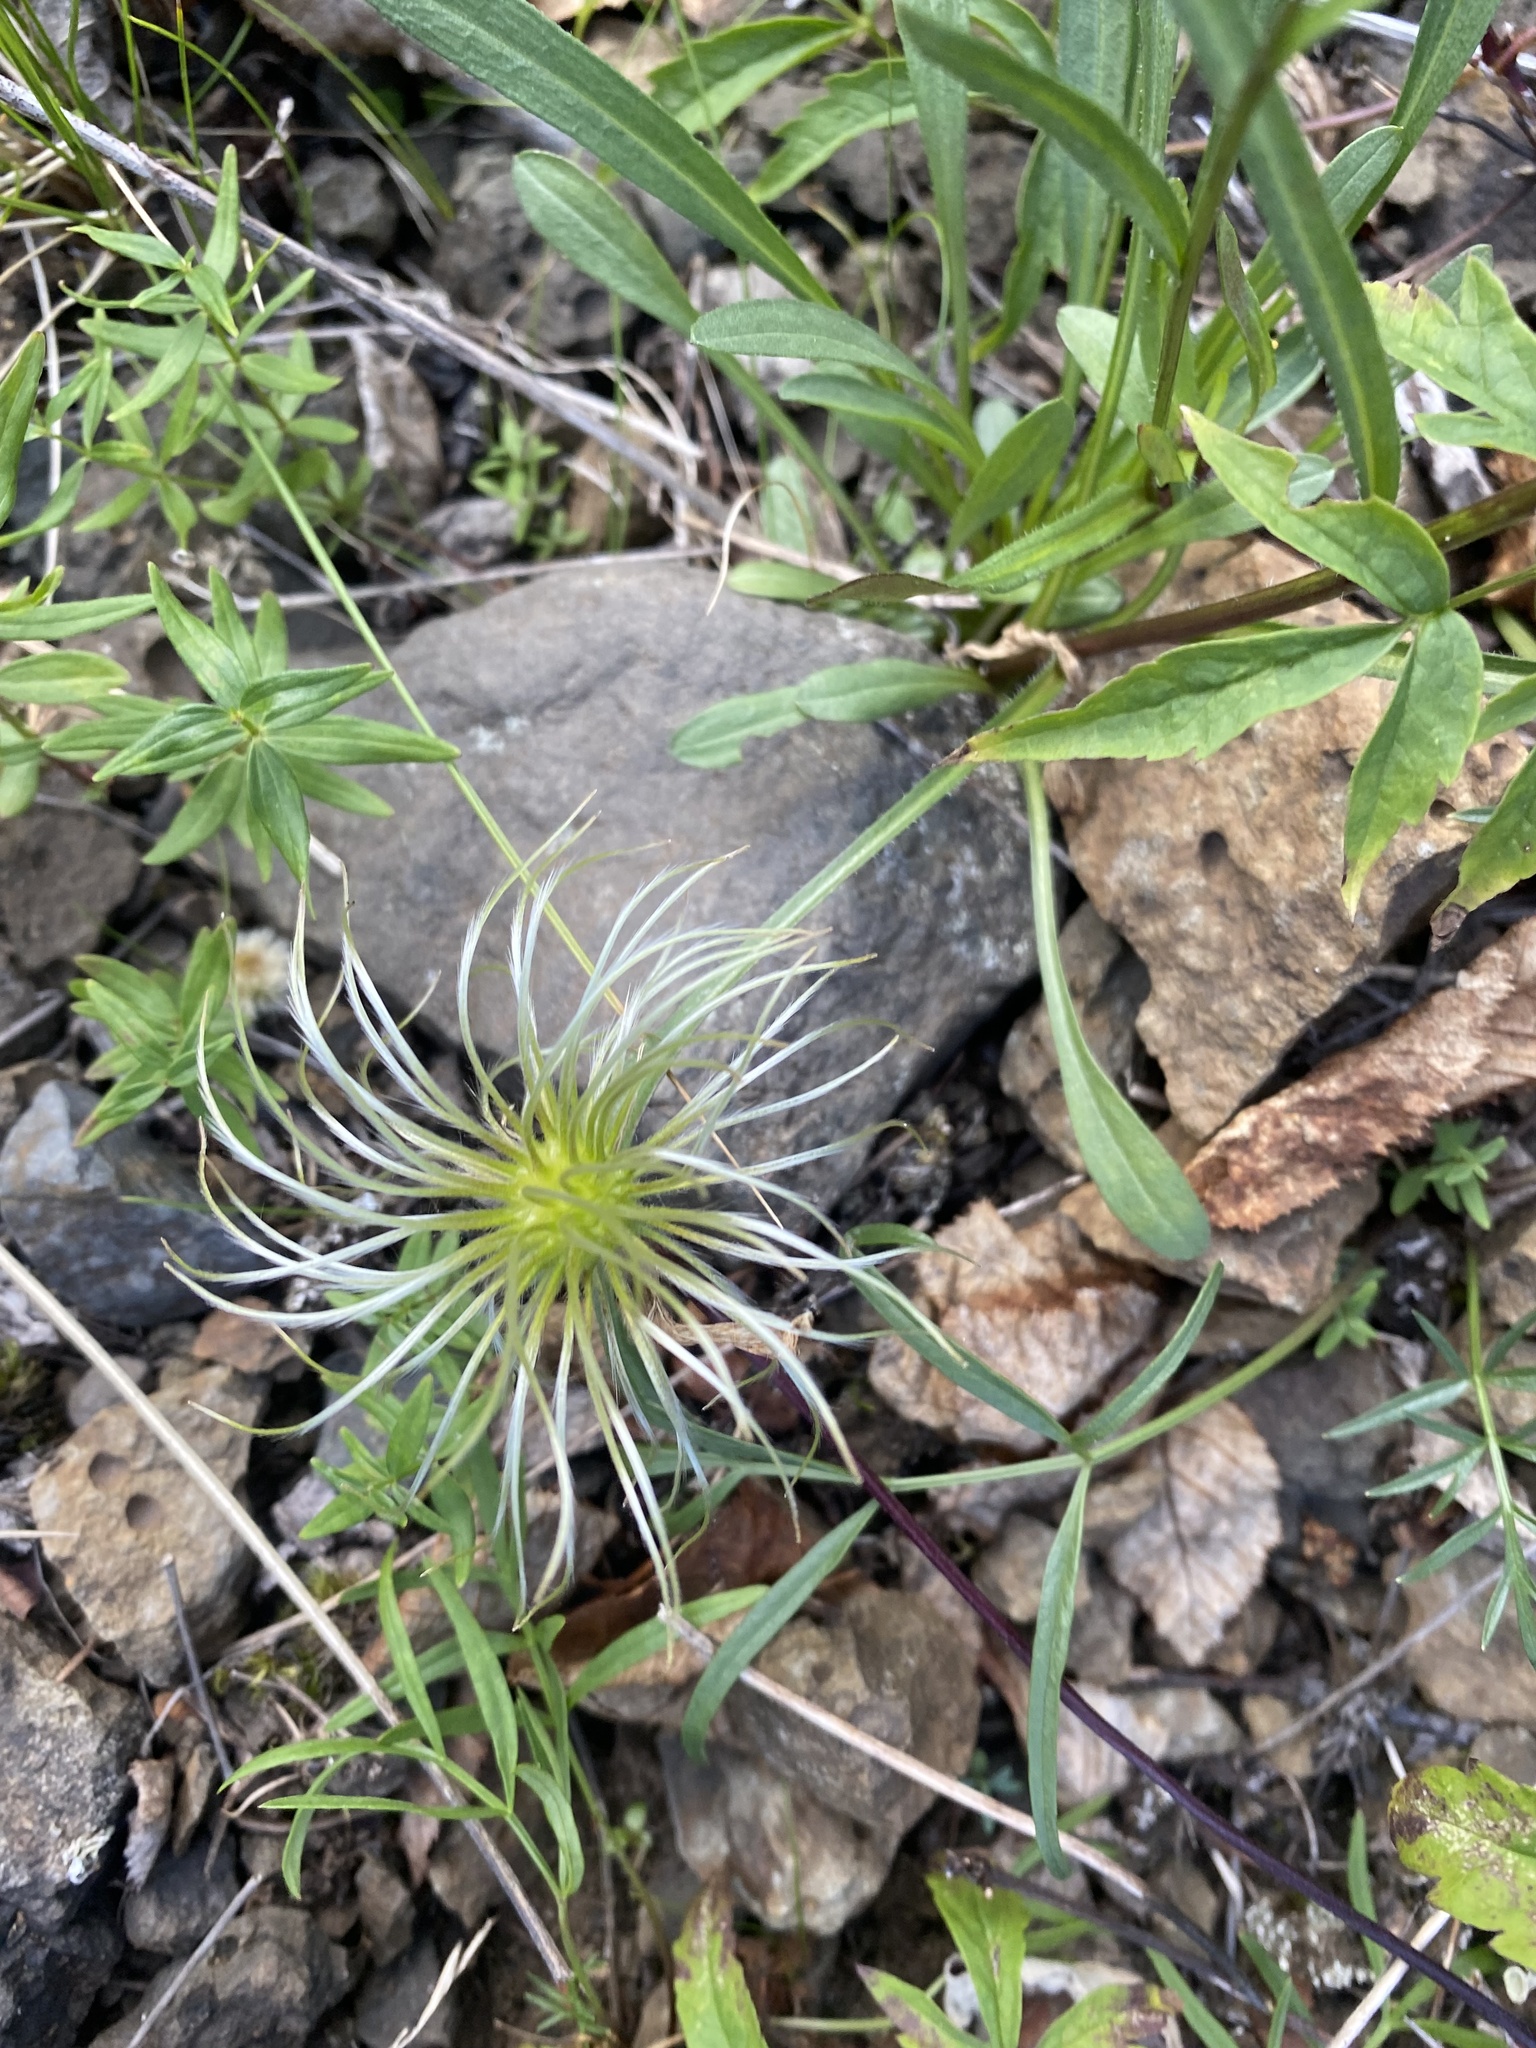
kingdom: Plantae
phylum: Tracheophyta
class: Magnoliopsida
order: Ranunculales
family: Ranunculaceae
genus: Clematis
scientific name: Clematis sibirica
